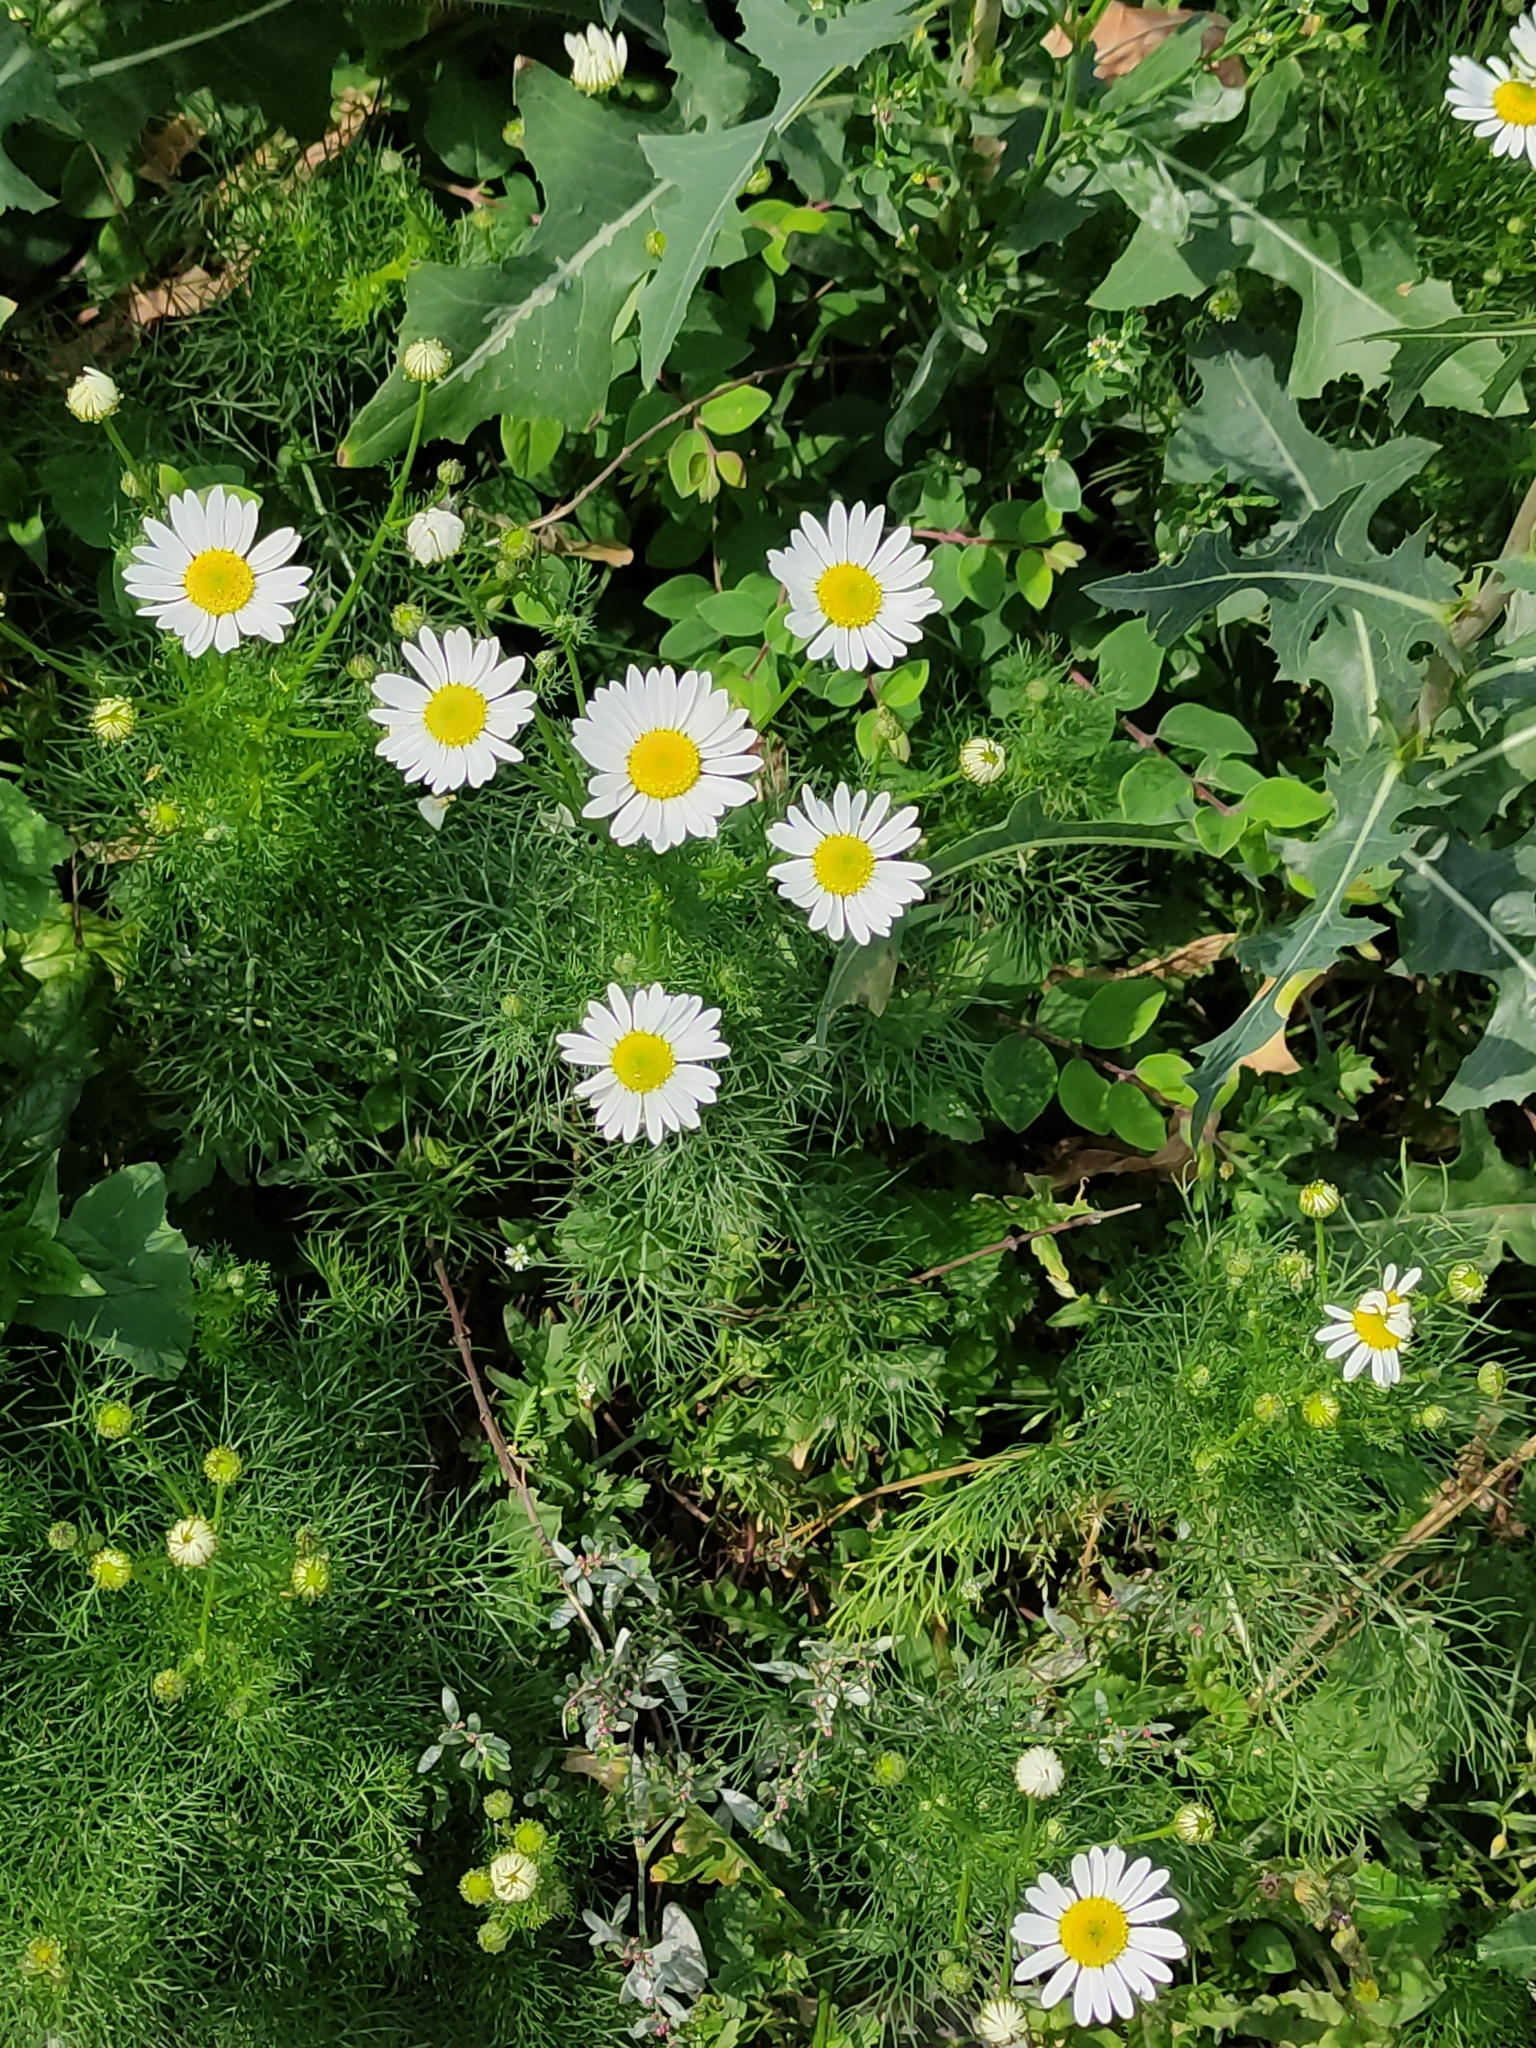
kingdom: Plantae
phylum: Tracheophyta
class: Magnoliopsida
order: Asterales
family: Asteraceae
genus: Tripleurospermum
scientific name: Tripleurospermum inodorum
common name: Scentless mayweed
